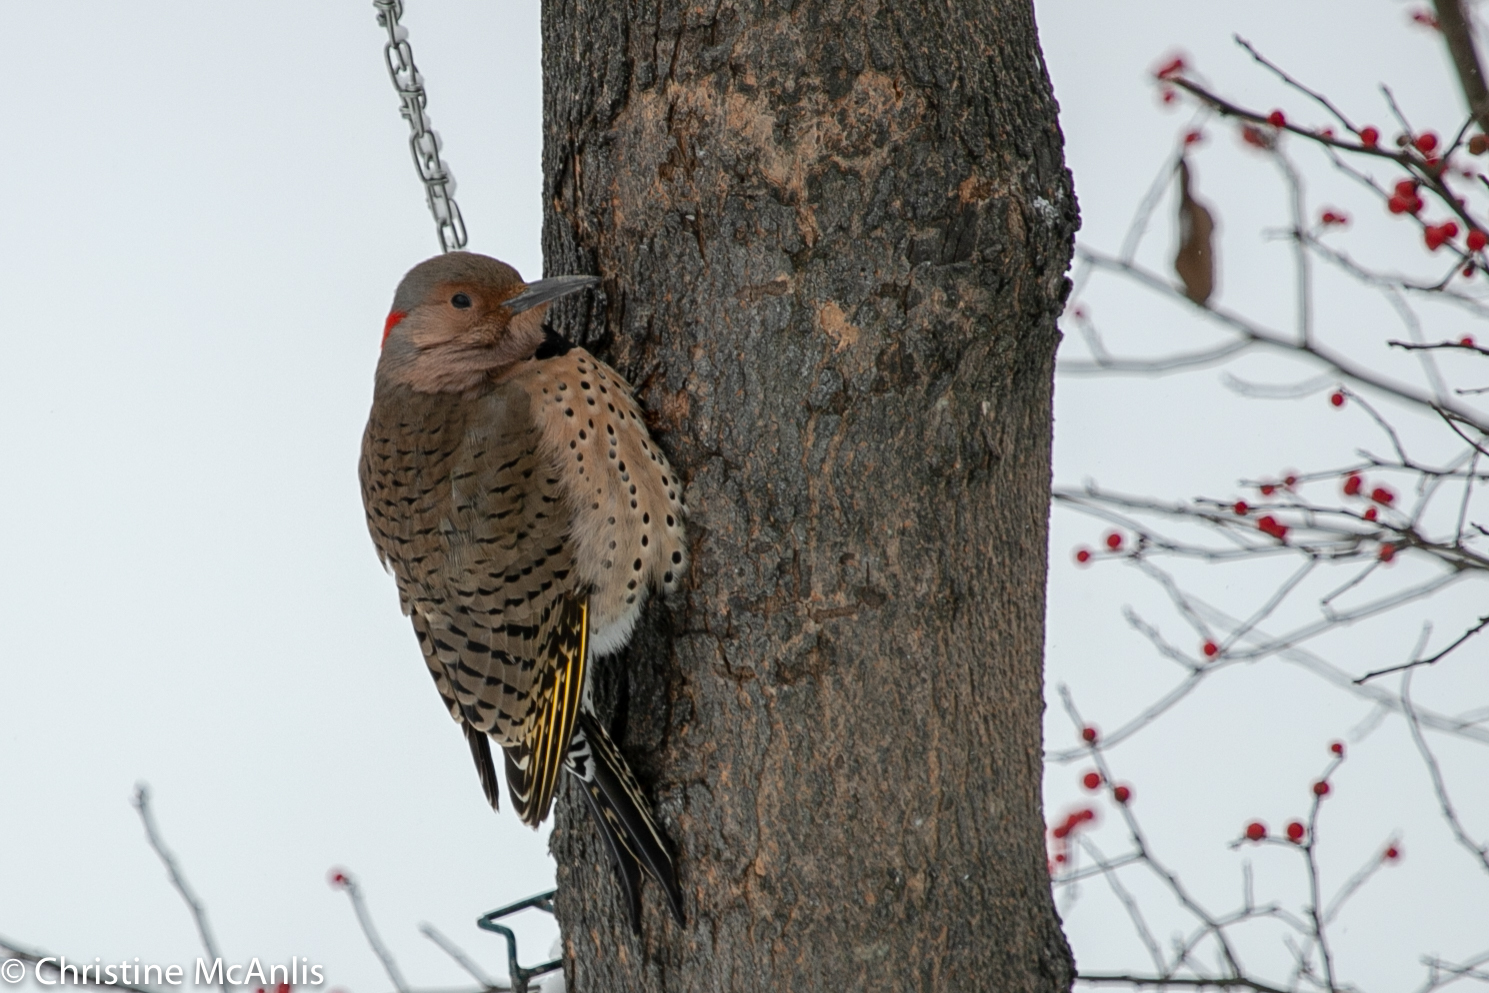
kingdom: Animalia
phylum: Chordata
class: Aves
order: Piciformes
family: Picidae
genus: Colaptes
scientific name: Colaptes auratus
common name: Northern flicker
